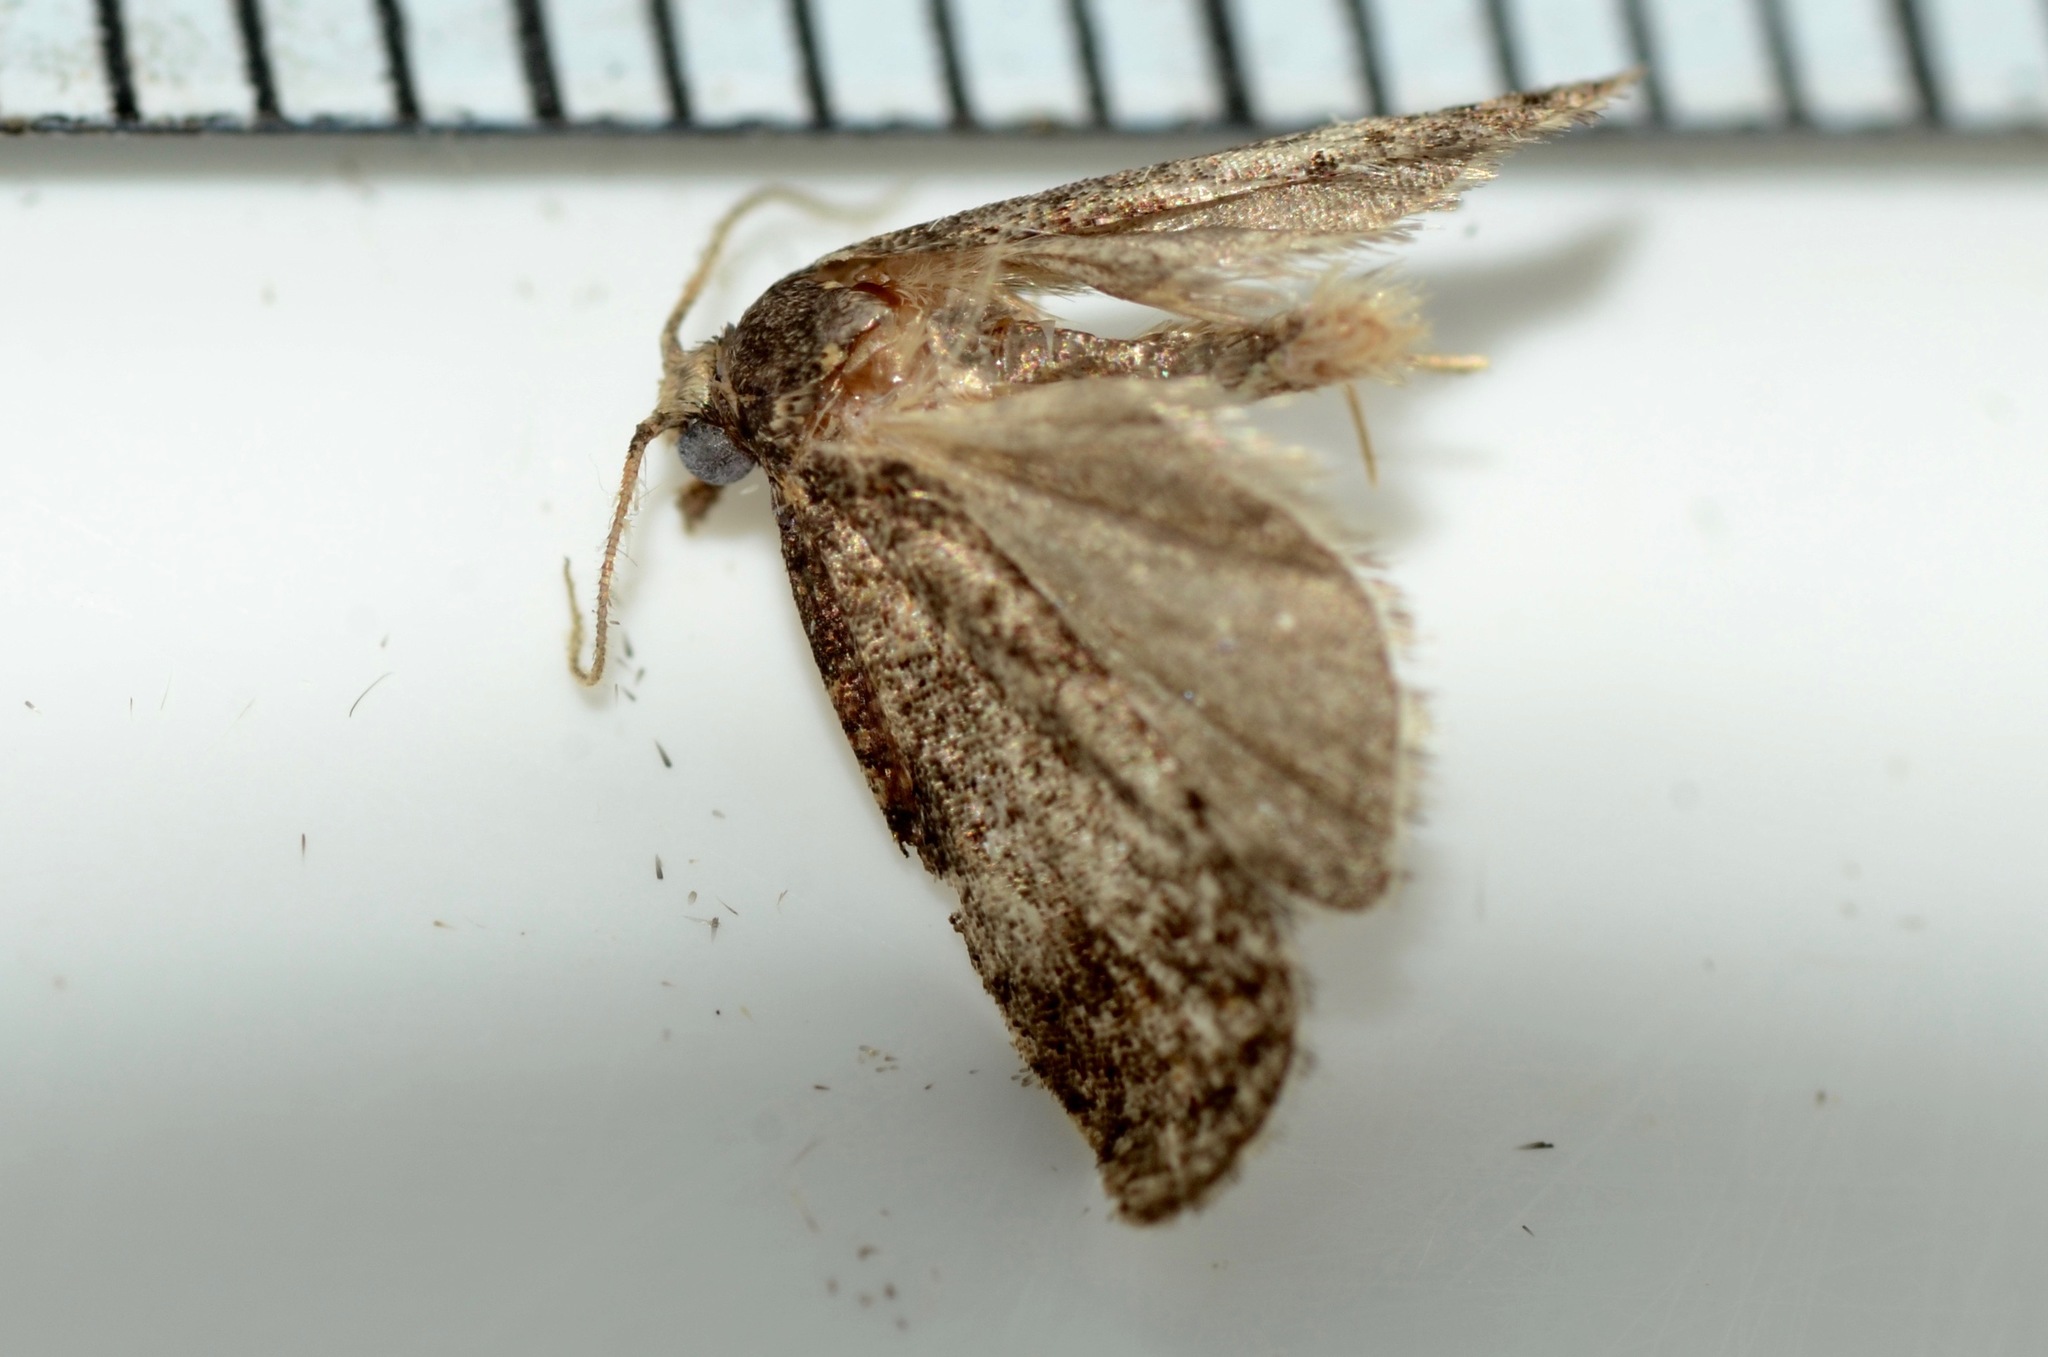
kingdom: Animalia
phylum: Arthropoda
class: Insecta
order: Lepidoptera
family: Tortricidae
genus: Capua
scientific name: Capua intractana
